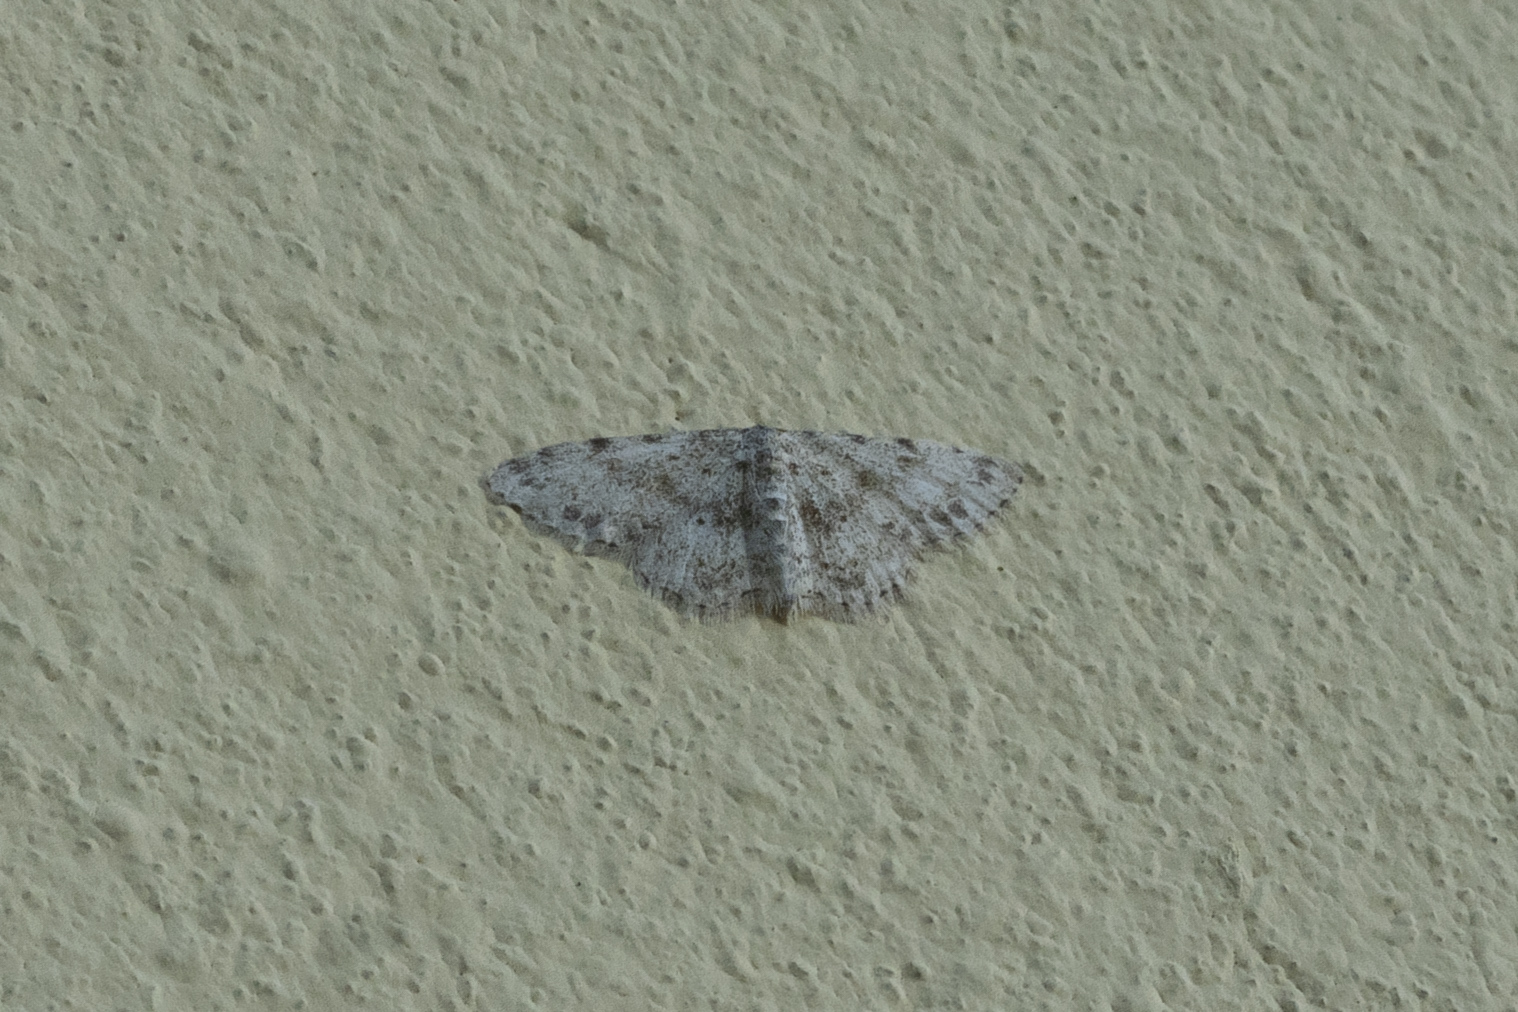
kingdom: Animalia
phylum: Arthropoda
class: Insecta
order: Lepidoptera
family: Geometridae
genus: Idaea
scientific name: Idaea camparia
